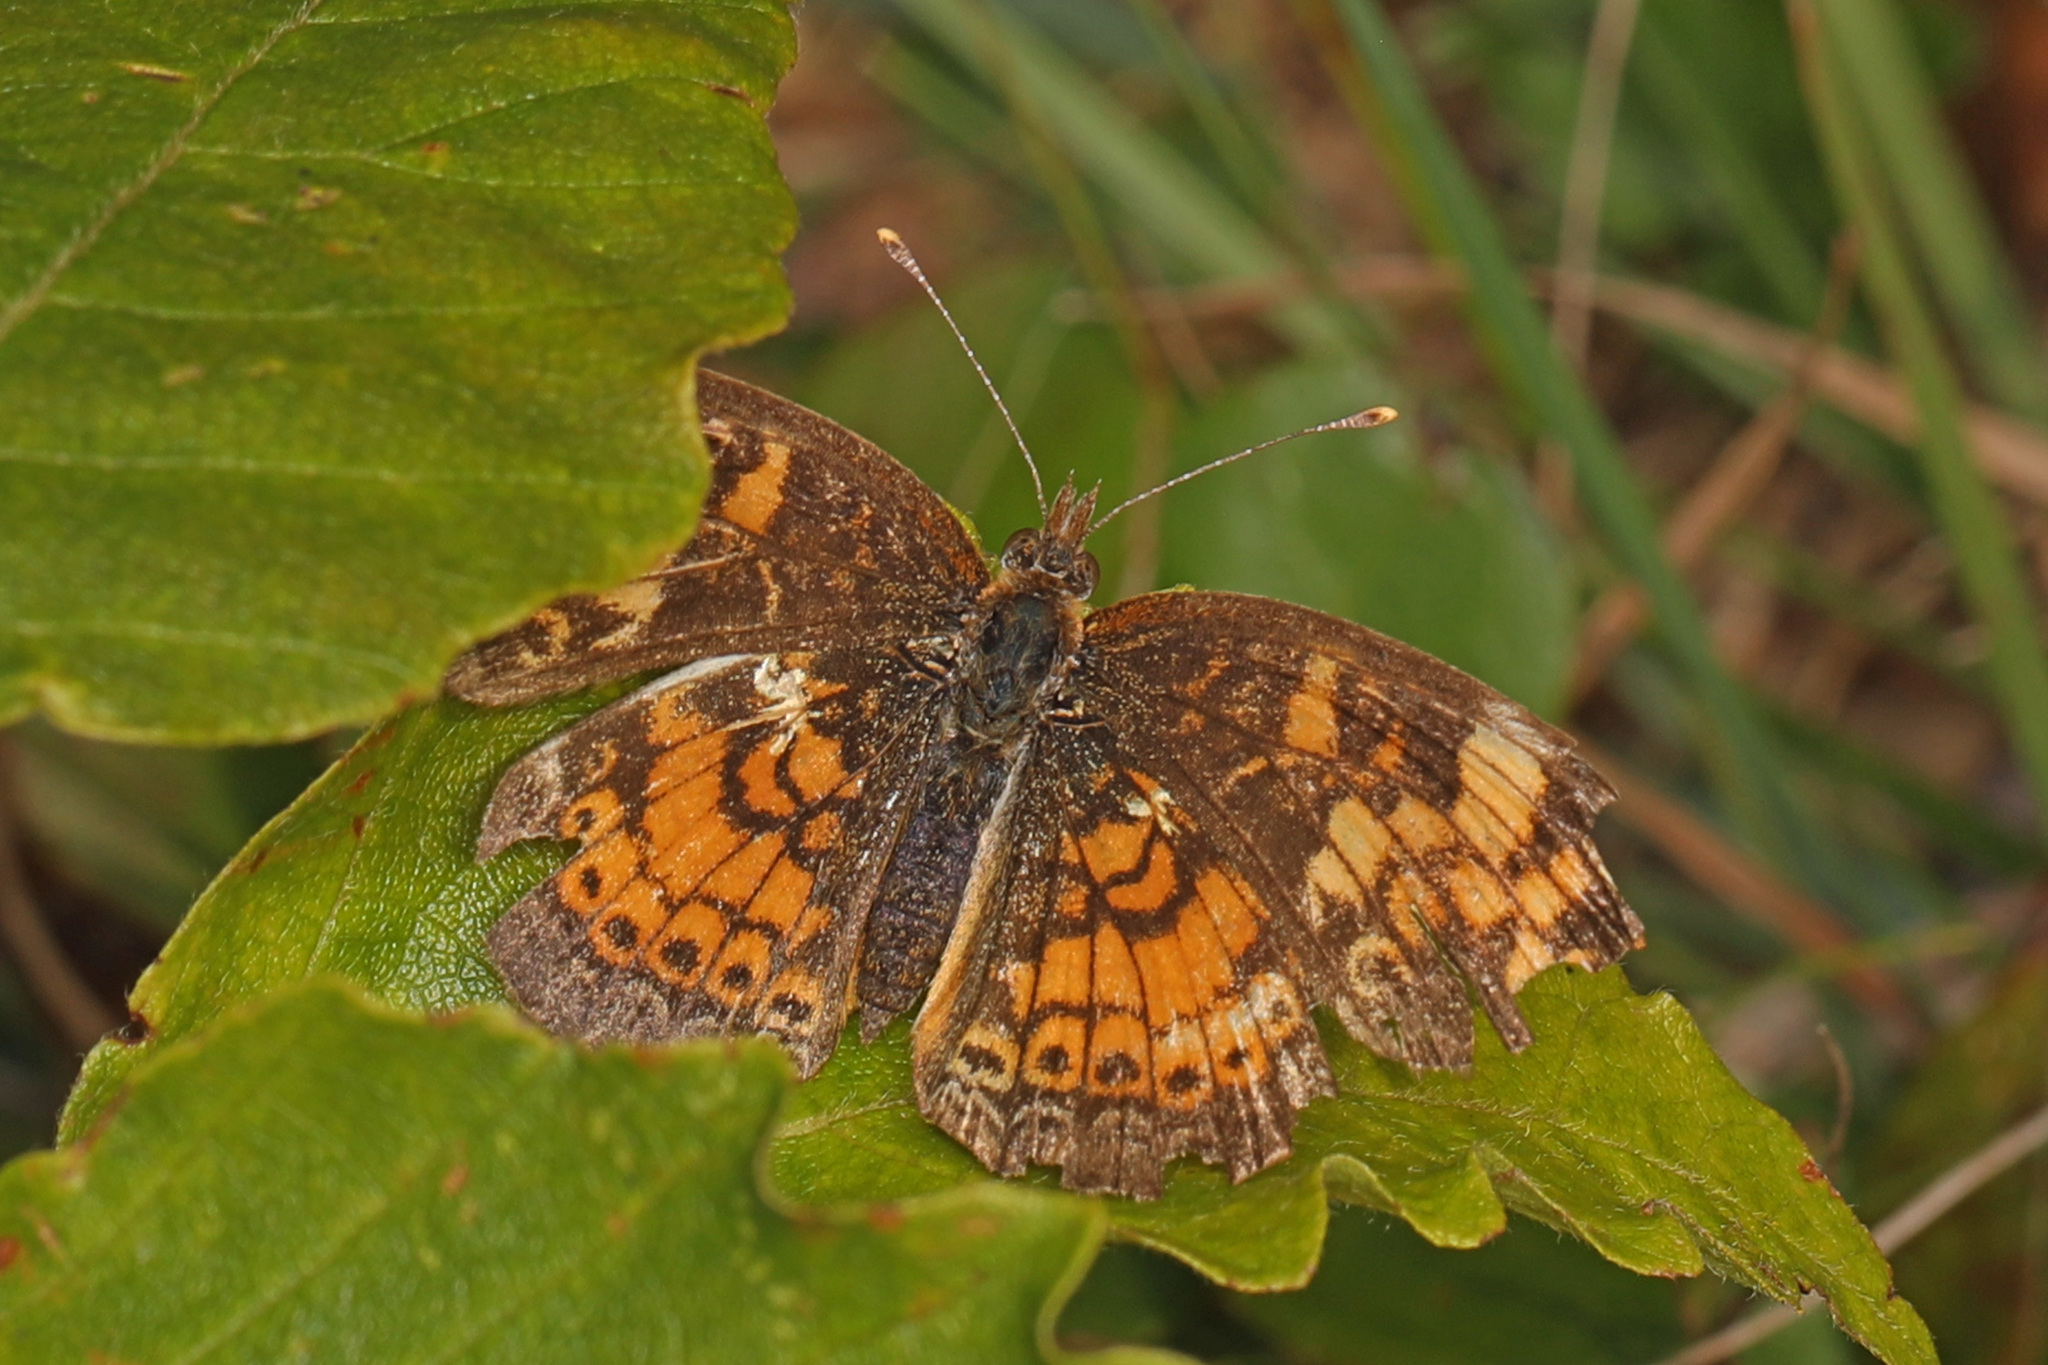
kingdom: Animalia
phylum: Arthropoda
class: Insecta
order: Lepidoptera
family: Nymphalidae
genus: Phyciodes
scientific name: Phyciodes tharos
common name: Pearl crescent
